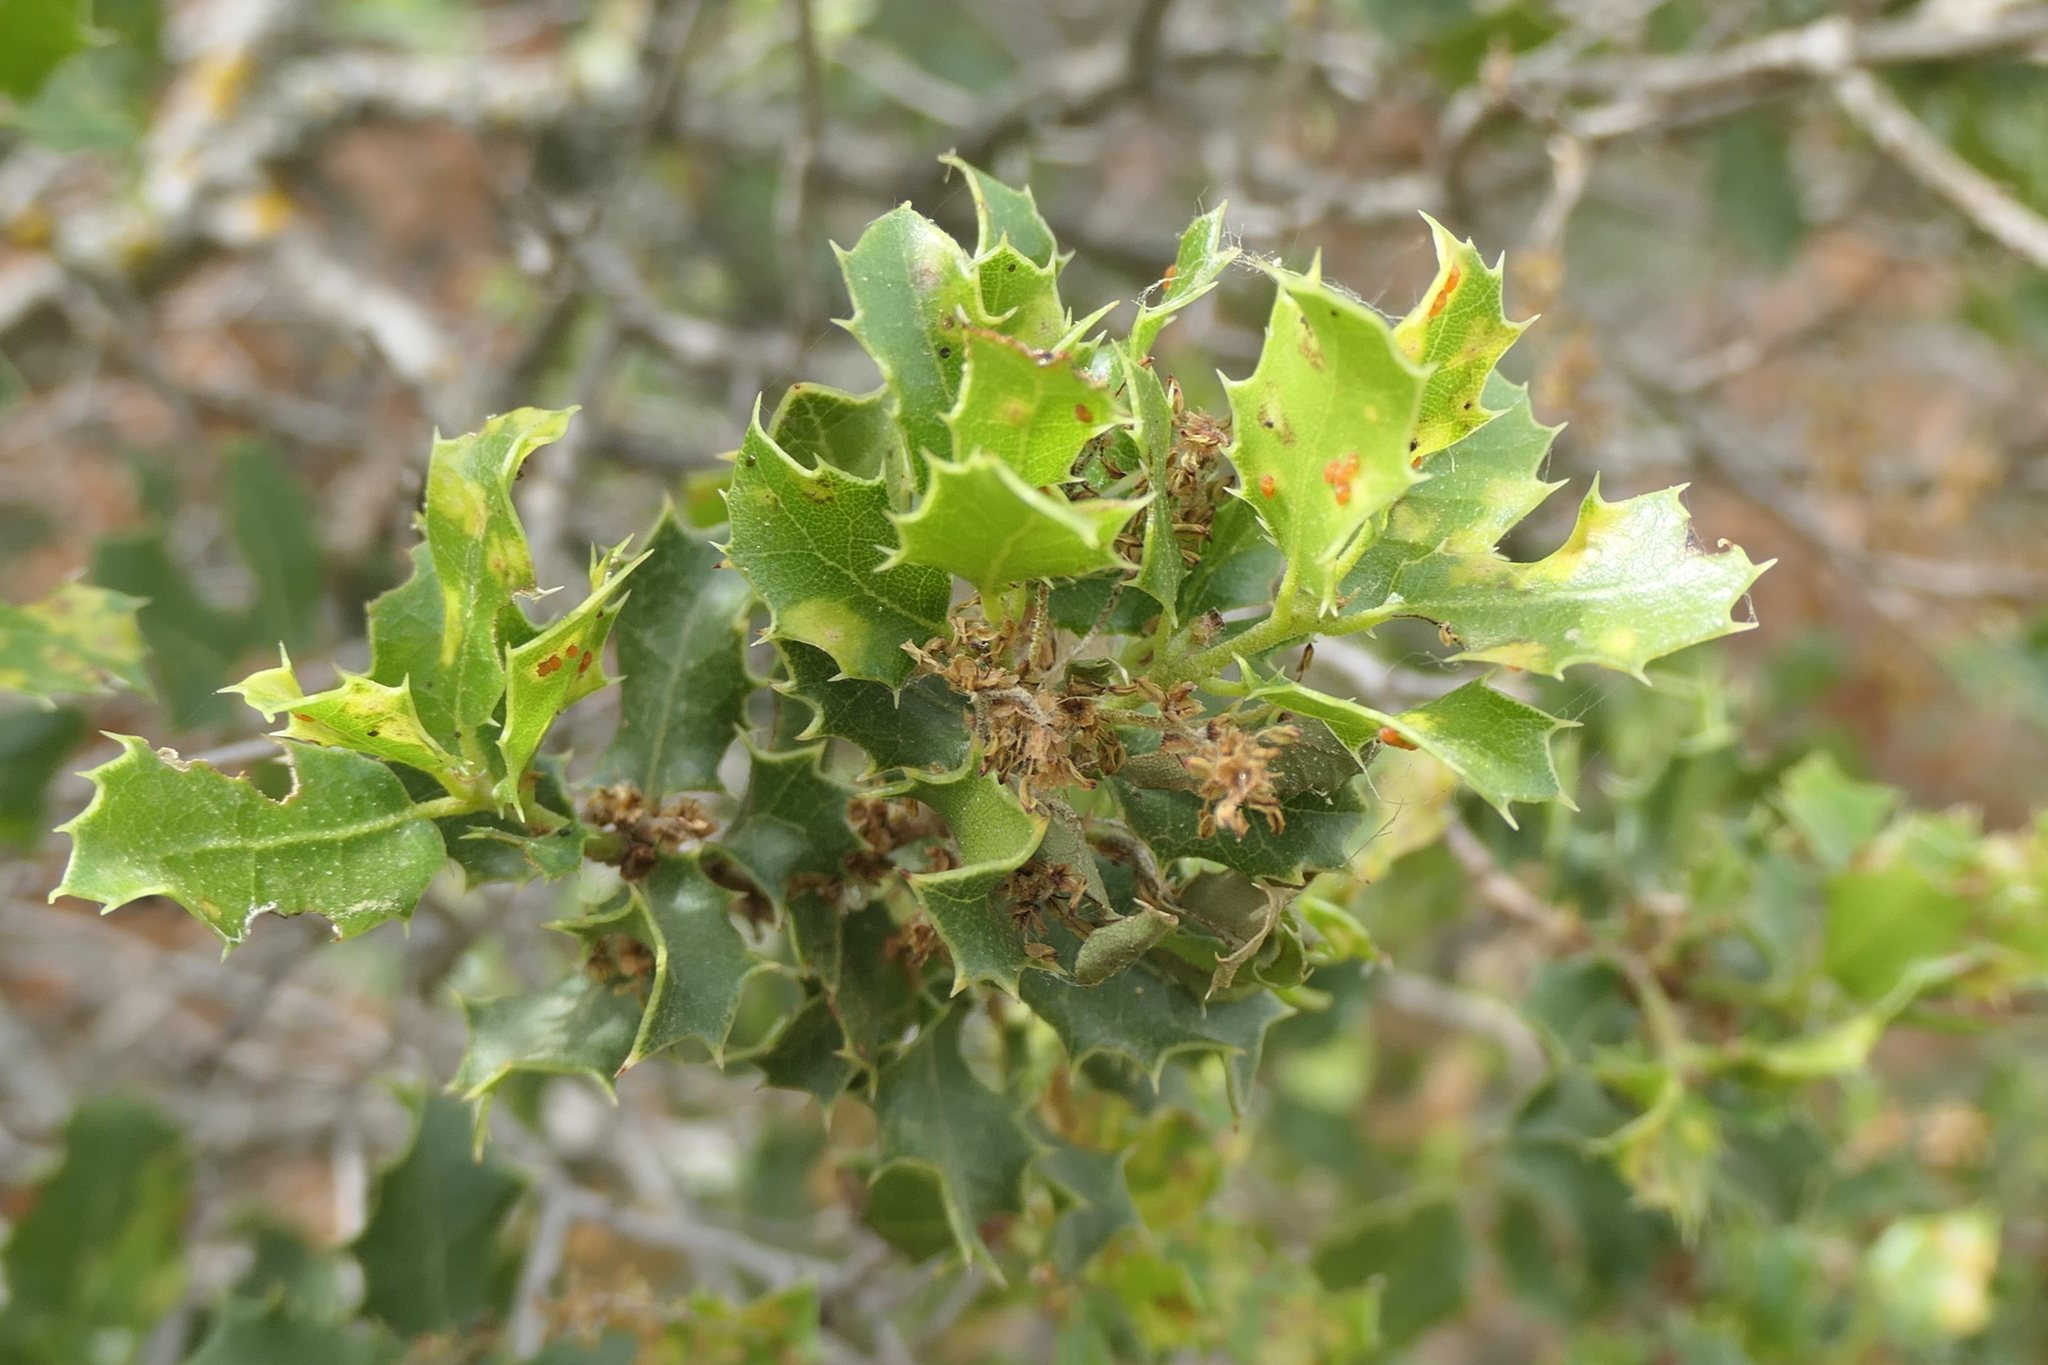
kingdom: Plantae
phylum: Tracheophyta
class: Magnoliopsida
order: Fagales
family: Fagaceae
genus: Quercus
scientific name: Quercus coccifera
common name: Kermes oak
